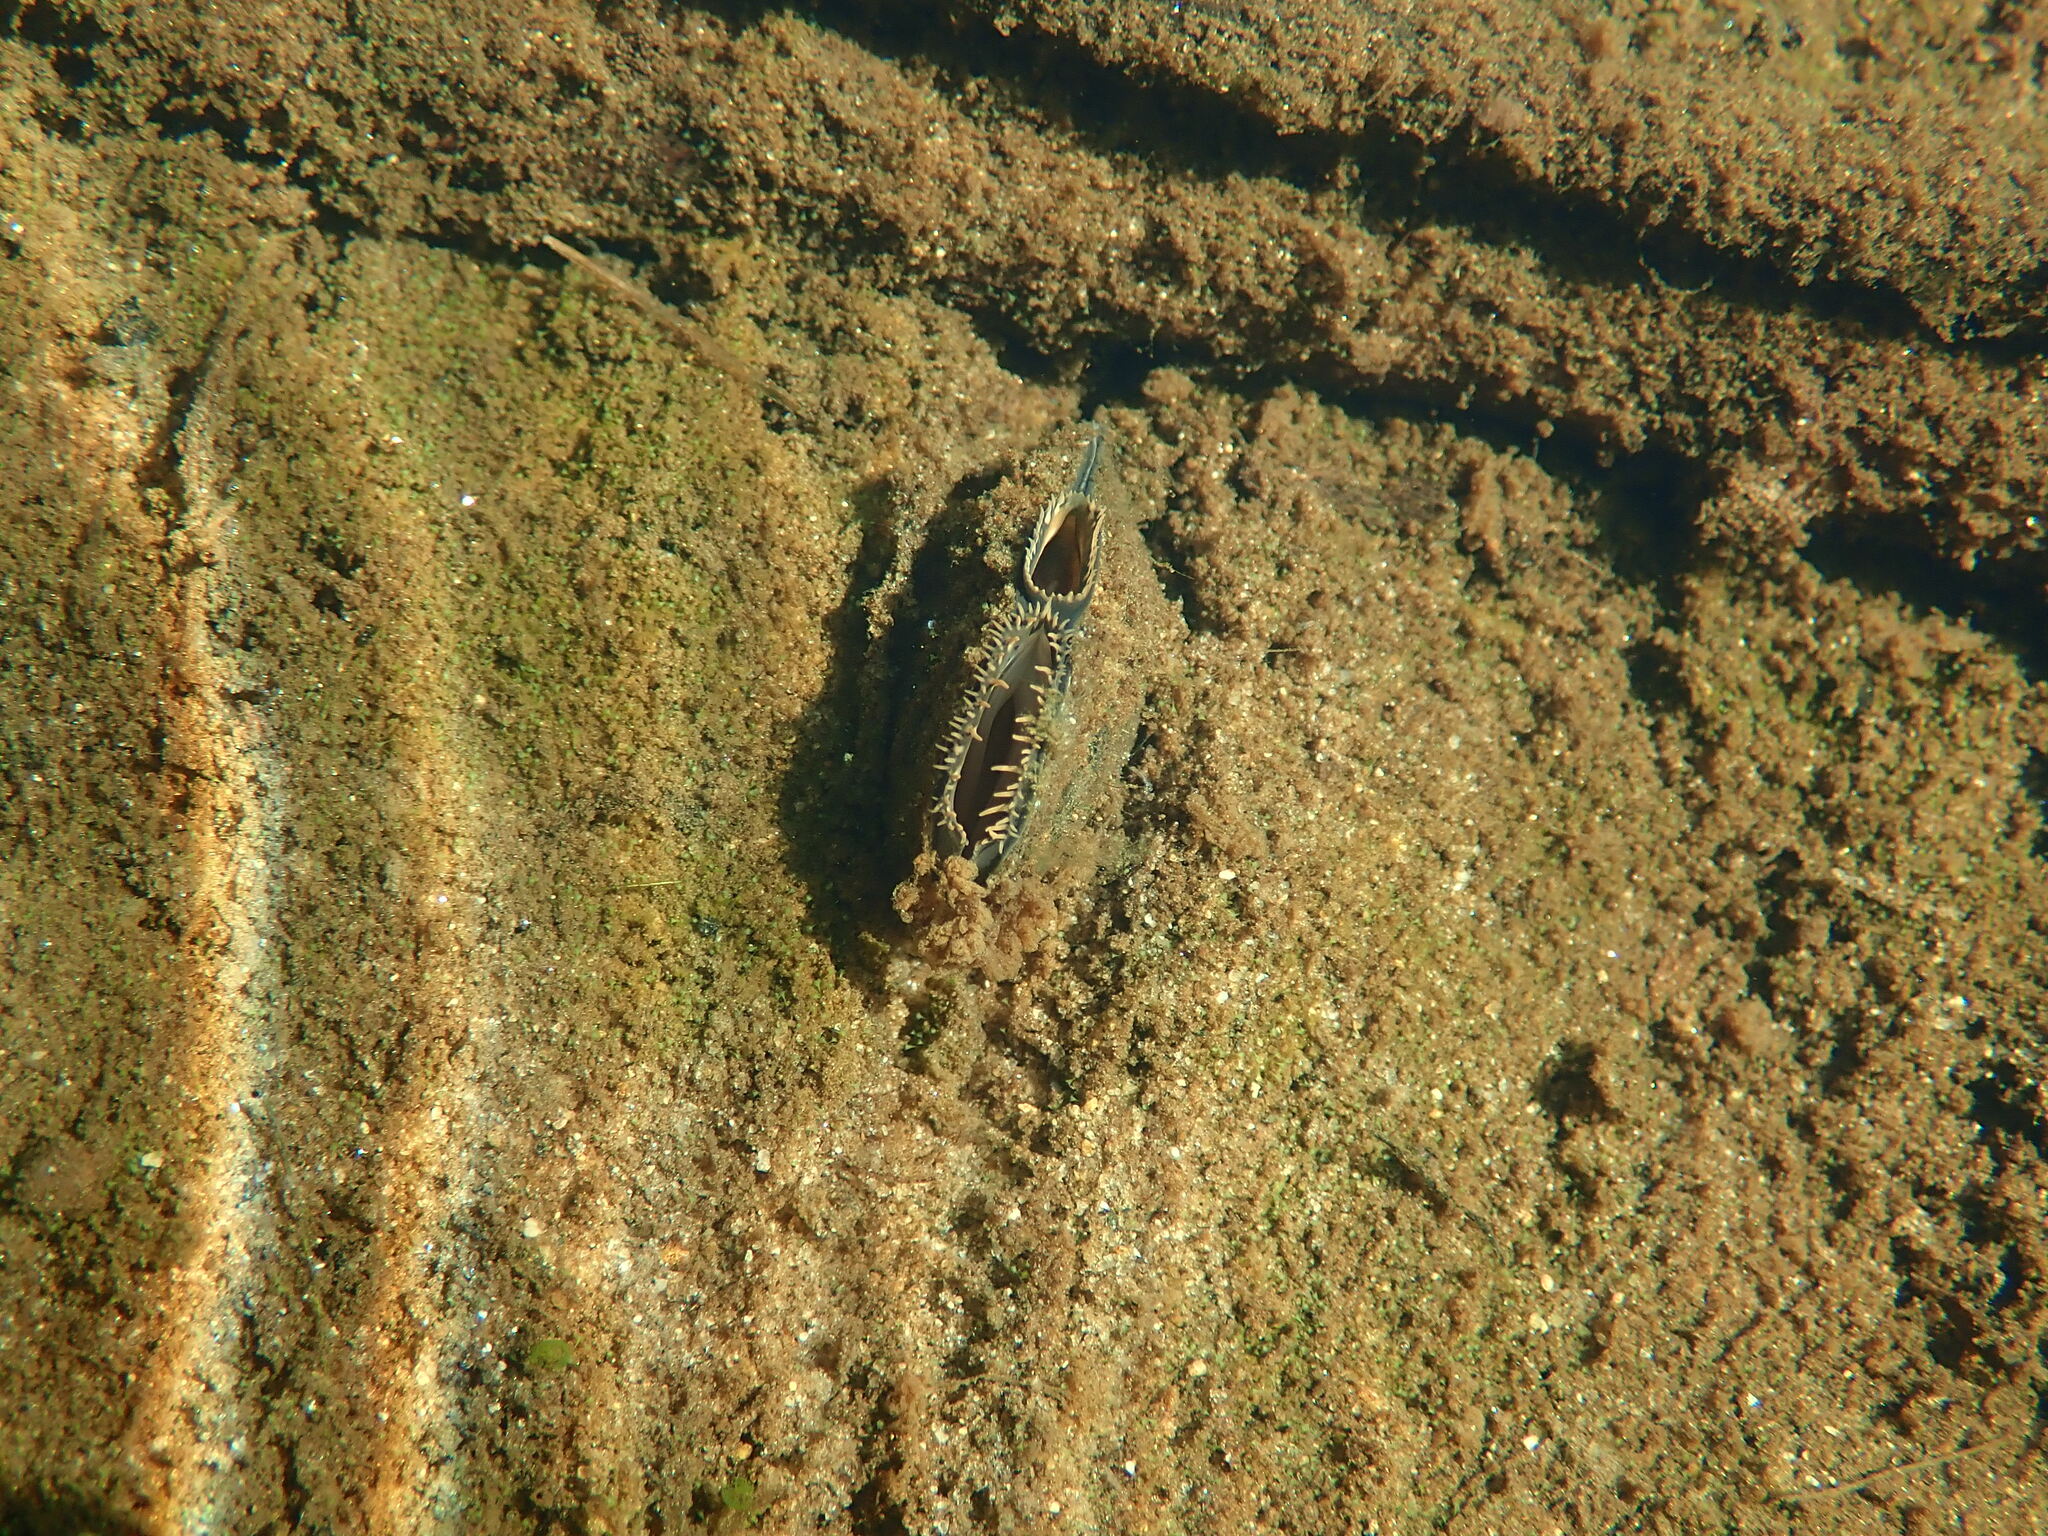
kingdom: Animalia
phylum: Mollusca
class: Bivalvia
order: Unionida
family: Unionidae
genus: Elliptio
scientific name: Elliptio complanata
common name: Eastern elliptio
